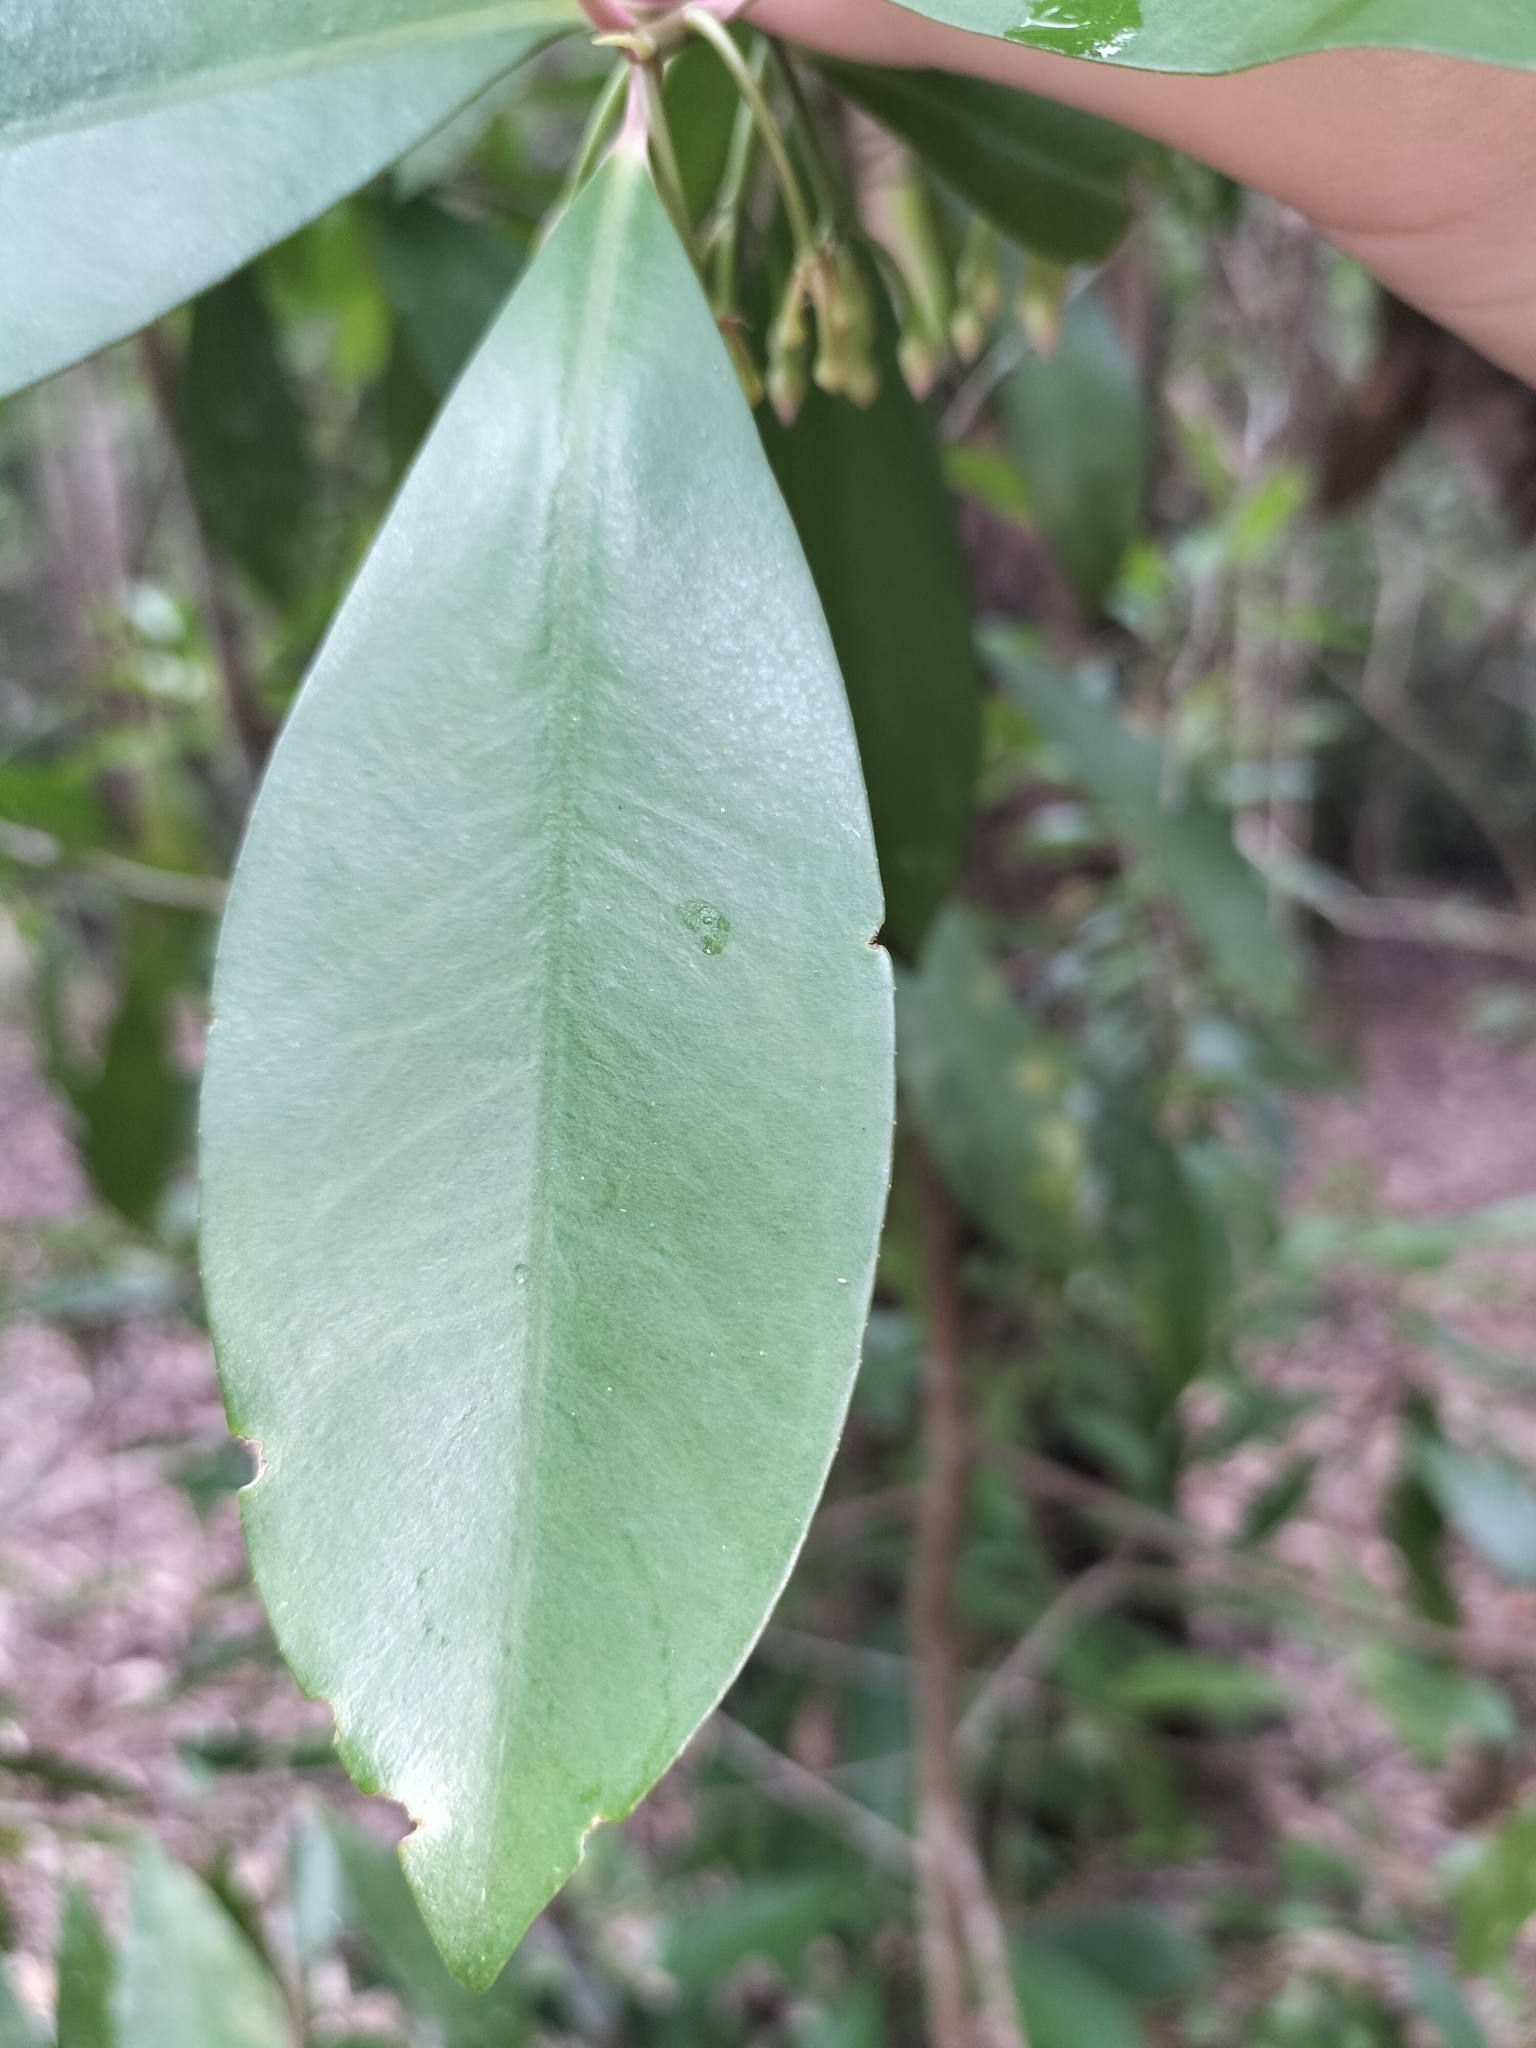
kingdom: Plantae
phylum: Tracheophyta
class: Magnoliopsida
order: Ericales
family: Primulaceae
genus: Ardisia
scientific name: Ardisia elliptica
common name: Shoebutton
